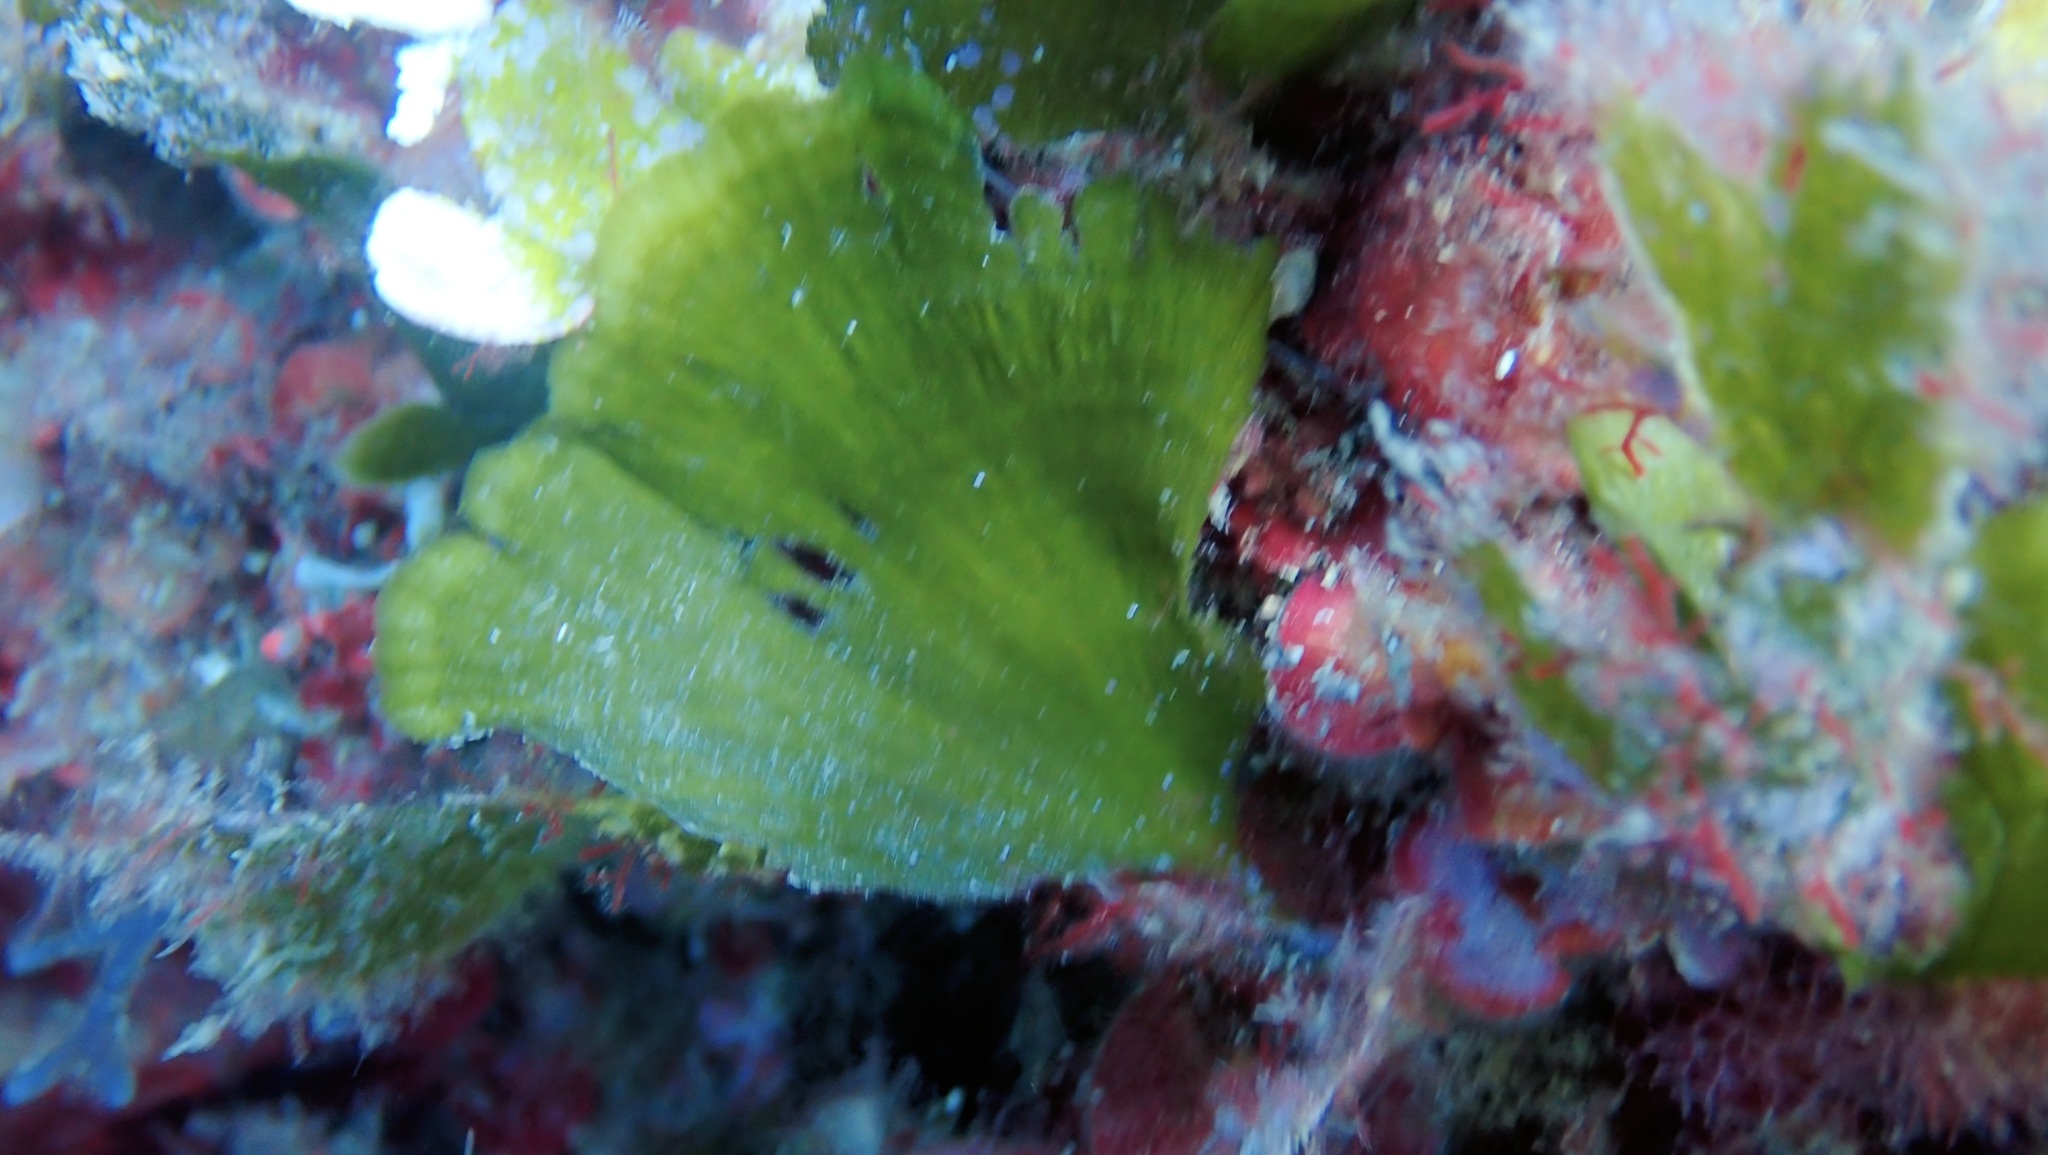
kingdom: Plantae
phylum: Chlorophyta
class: Ulvophyceae
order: Bryopsidales
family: Codiaceae
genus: Codium
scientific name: Codium Flabellia petiolata
